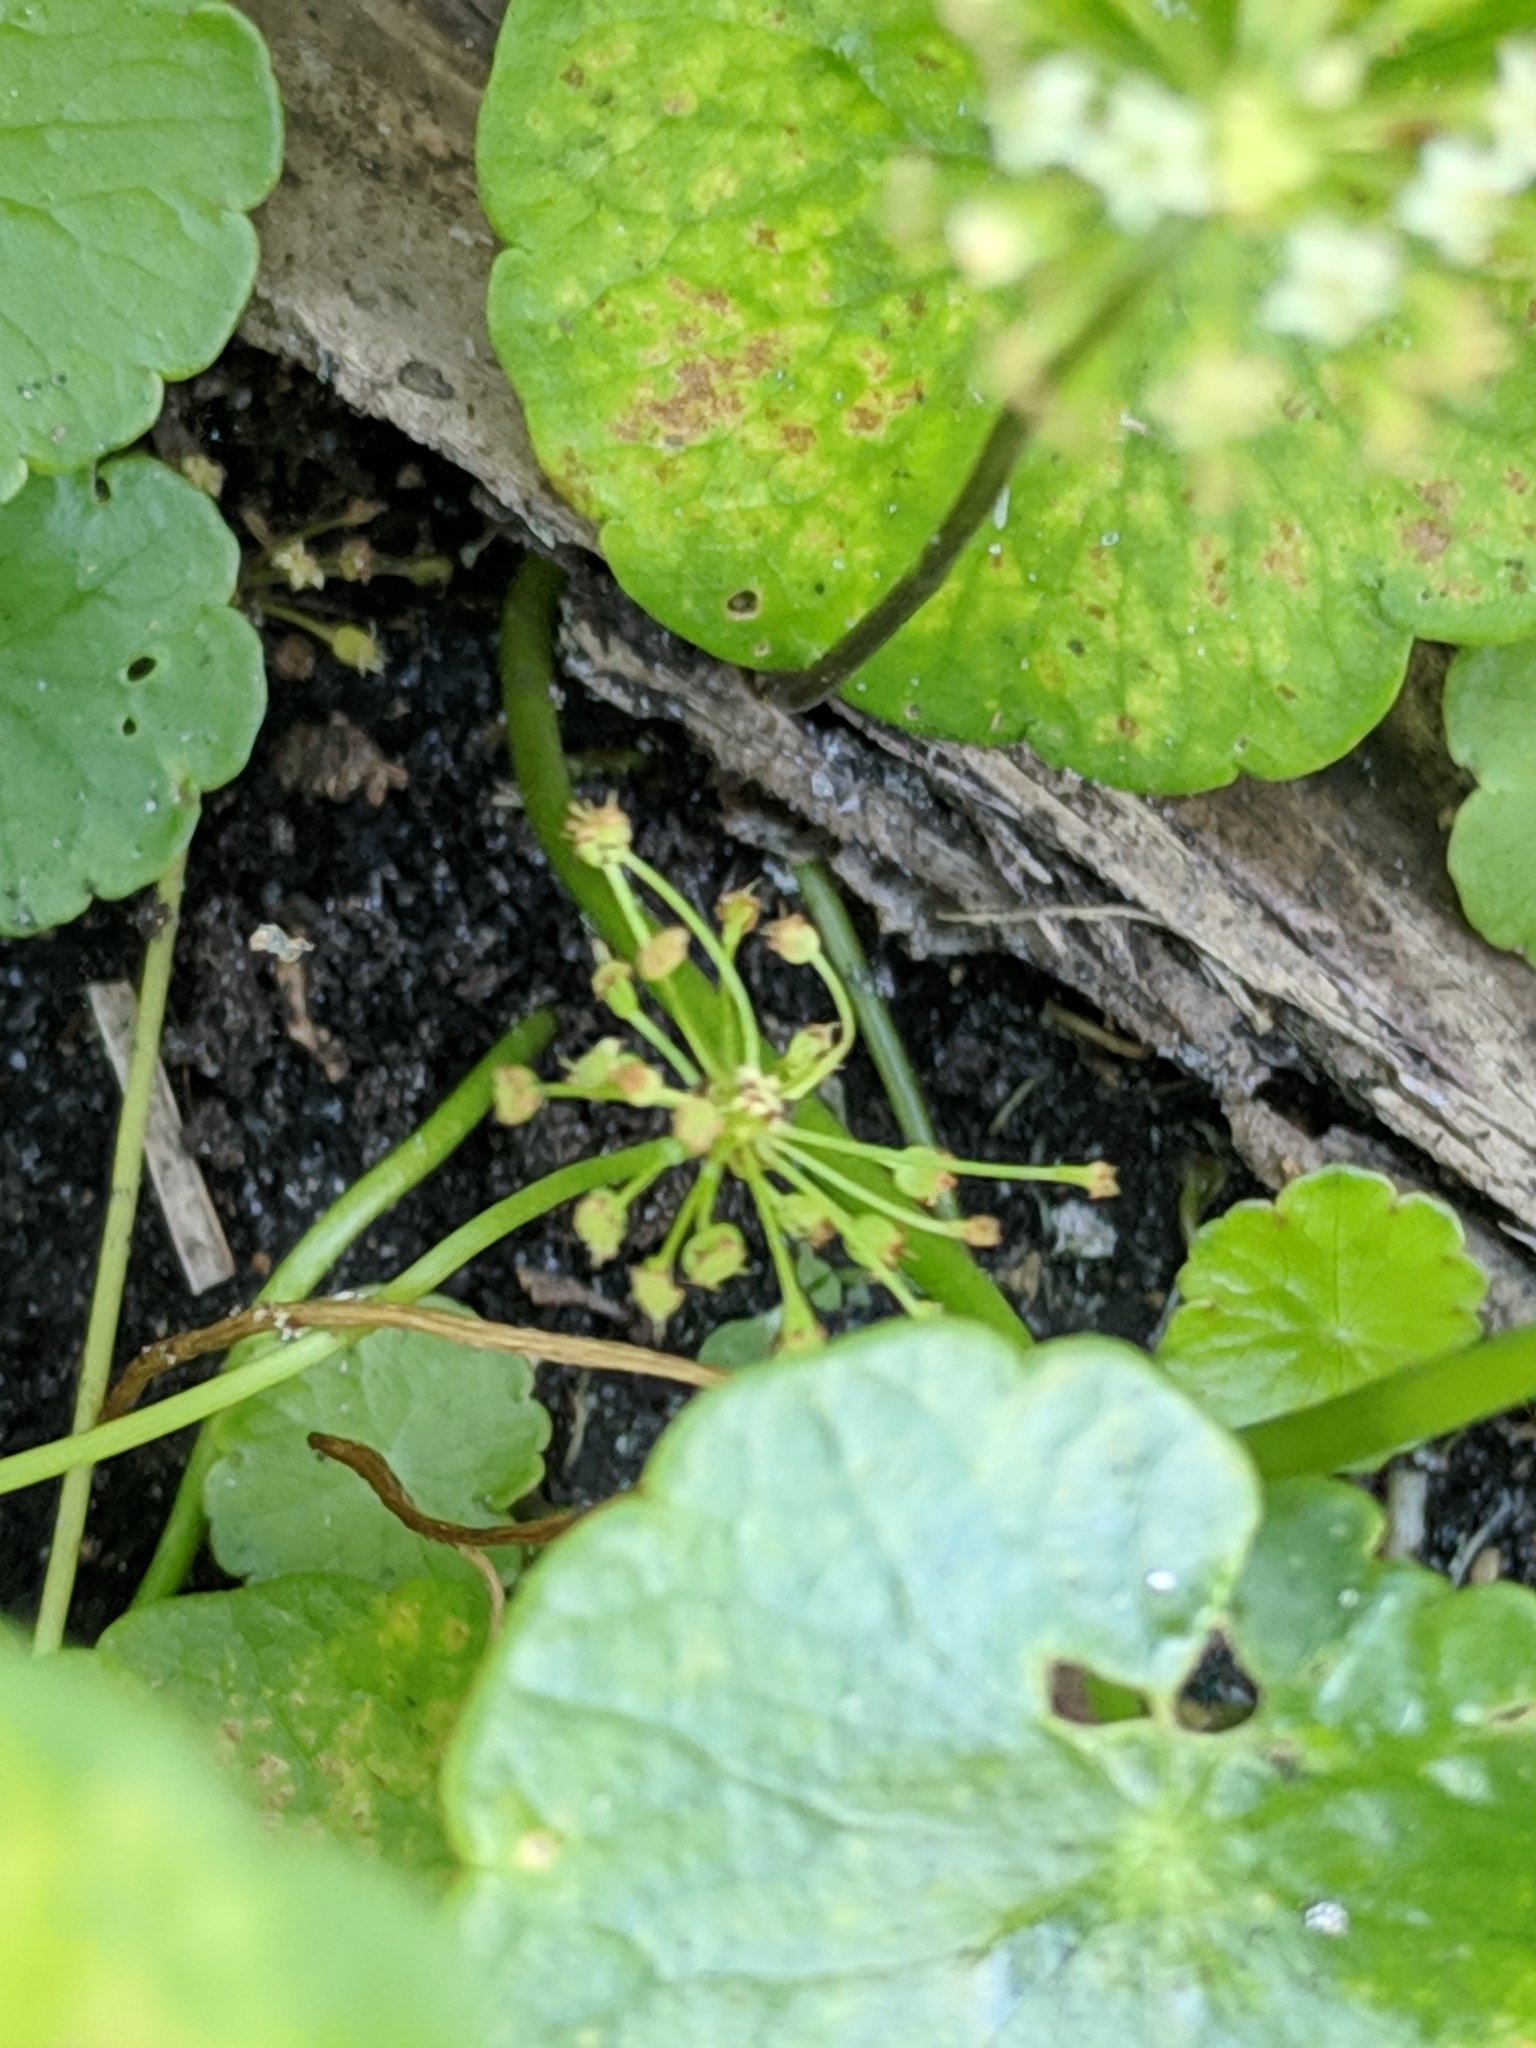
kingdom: Plantae
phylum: Tracheophyta
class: Magnoliopsida
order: Apiales
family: Araliaceae
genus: Hydrocotyle
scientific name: Hydrocotyle umbellata
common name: Water pennywort
